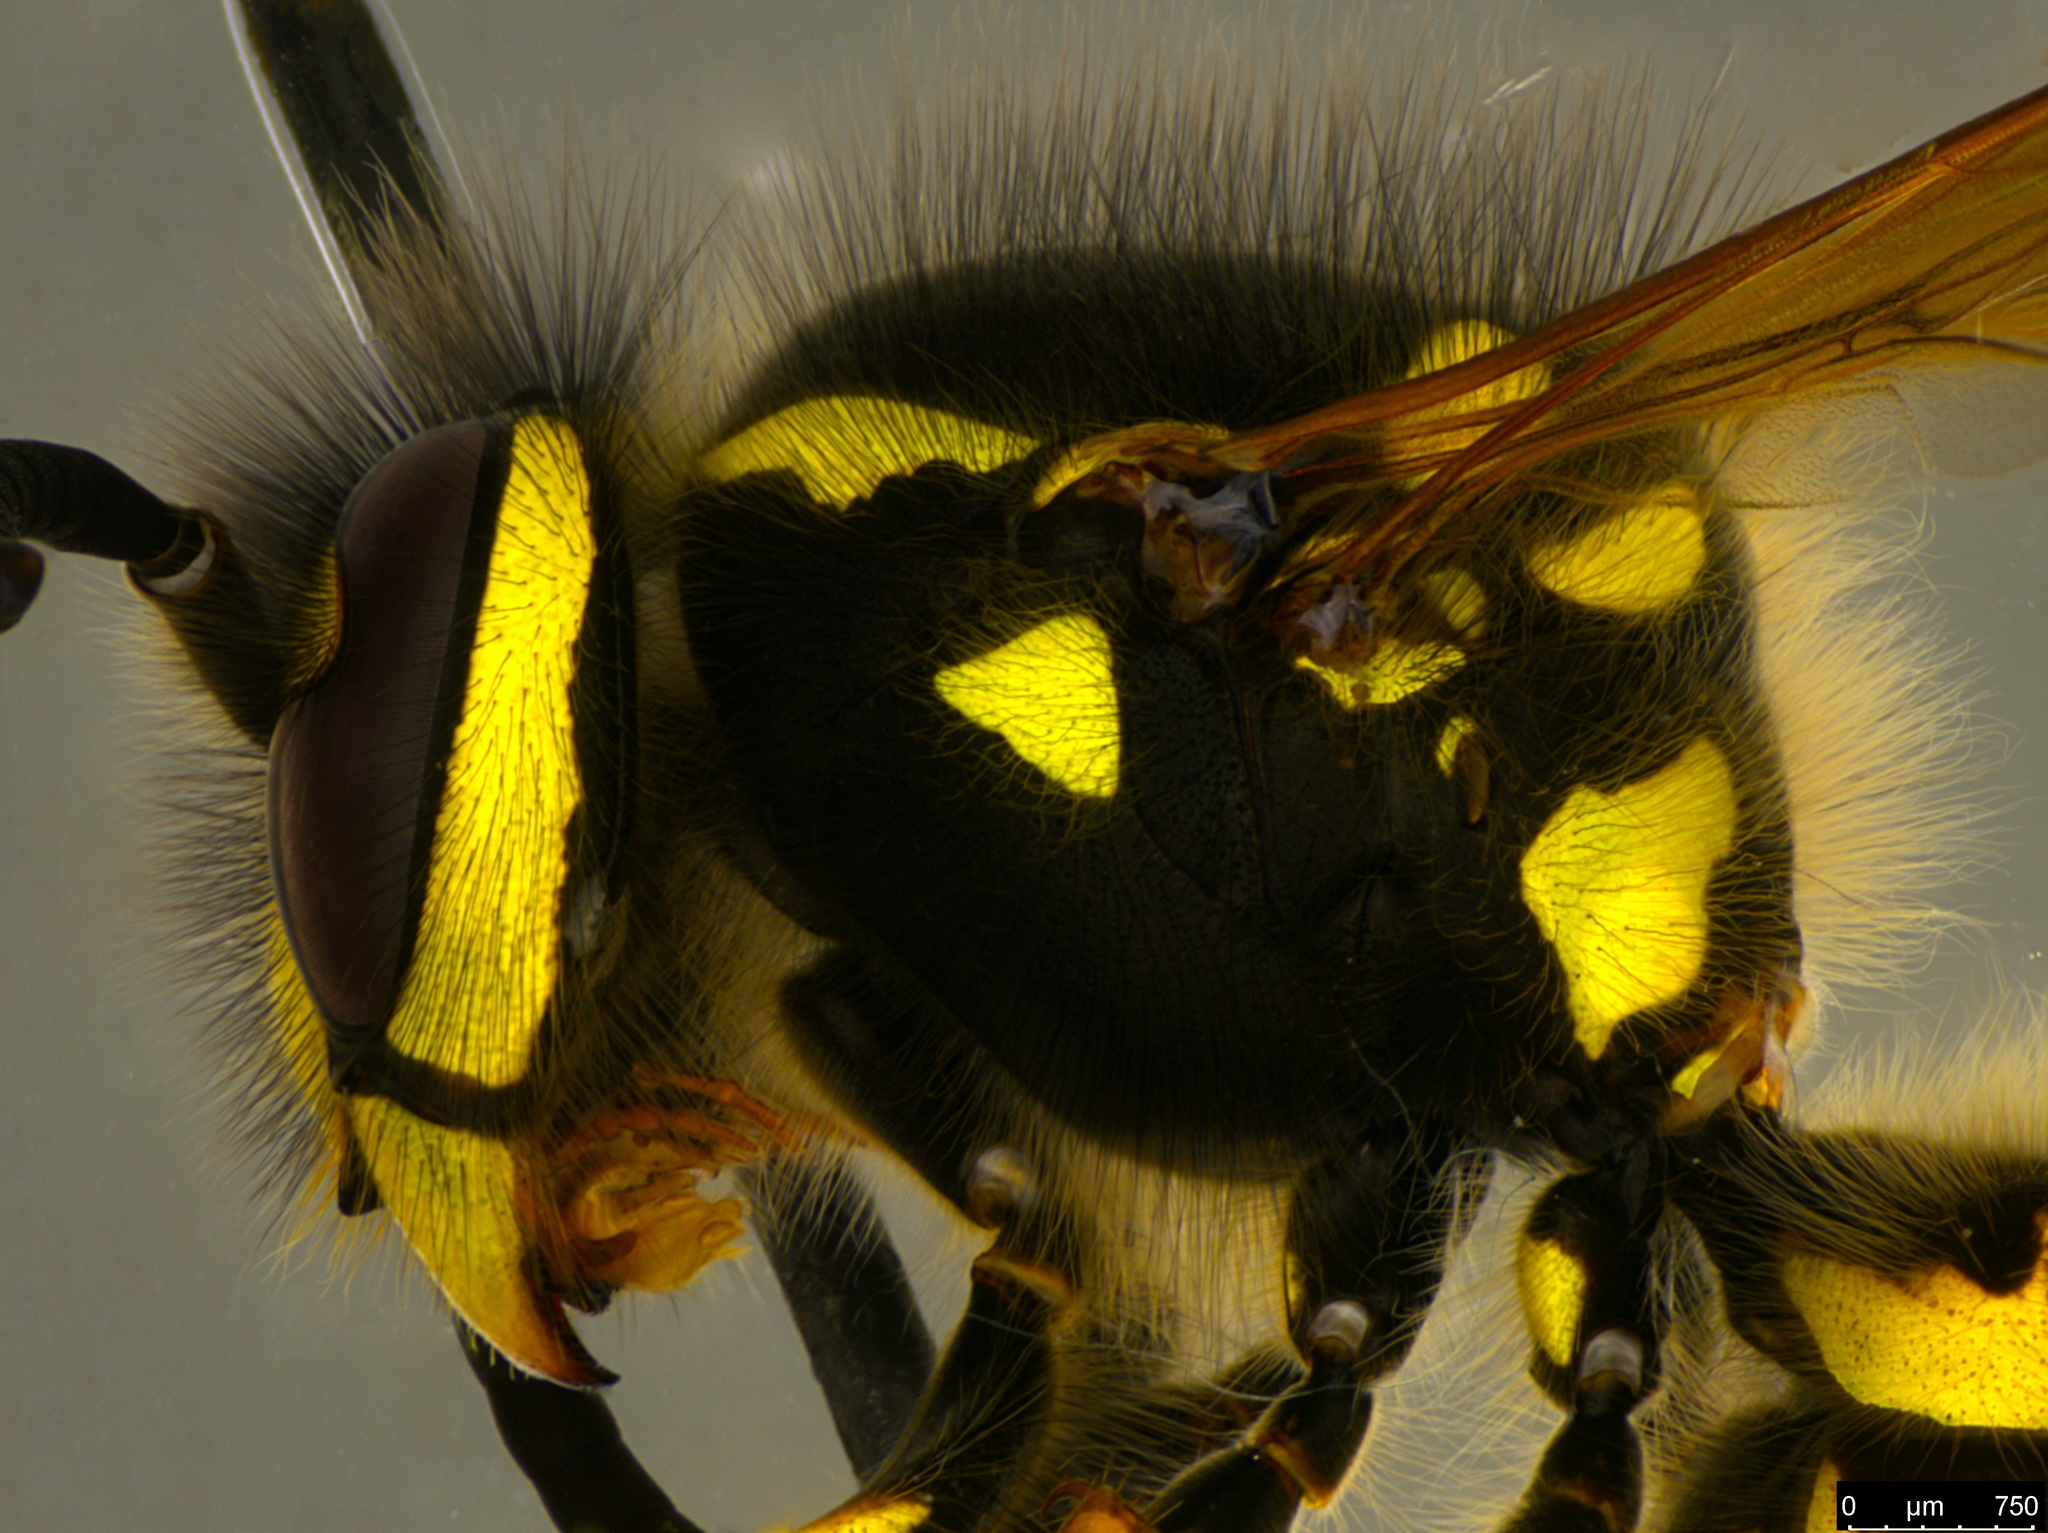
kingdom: Animalia
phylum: Arthropoda
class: Insecta
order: Hymenoptera
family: Vespidae
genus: Vespula
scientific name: Vespula germanica
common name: German wasp
